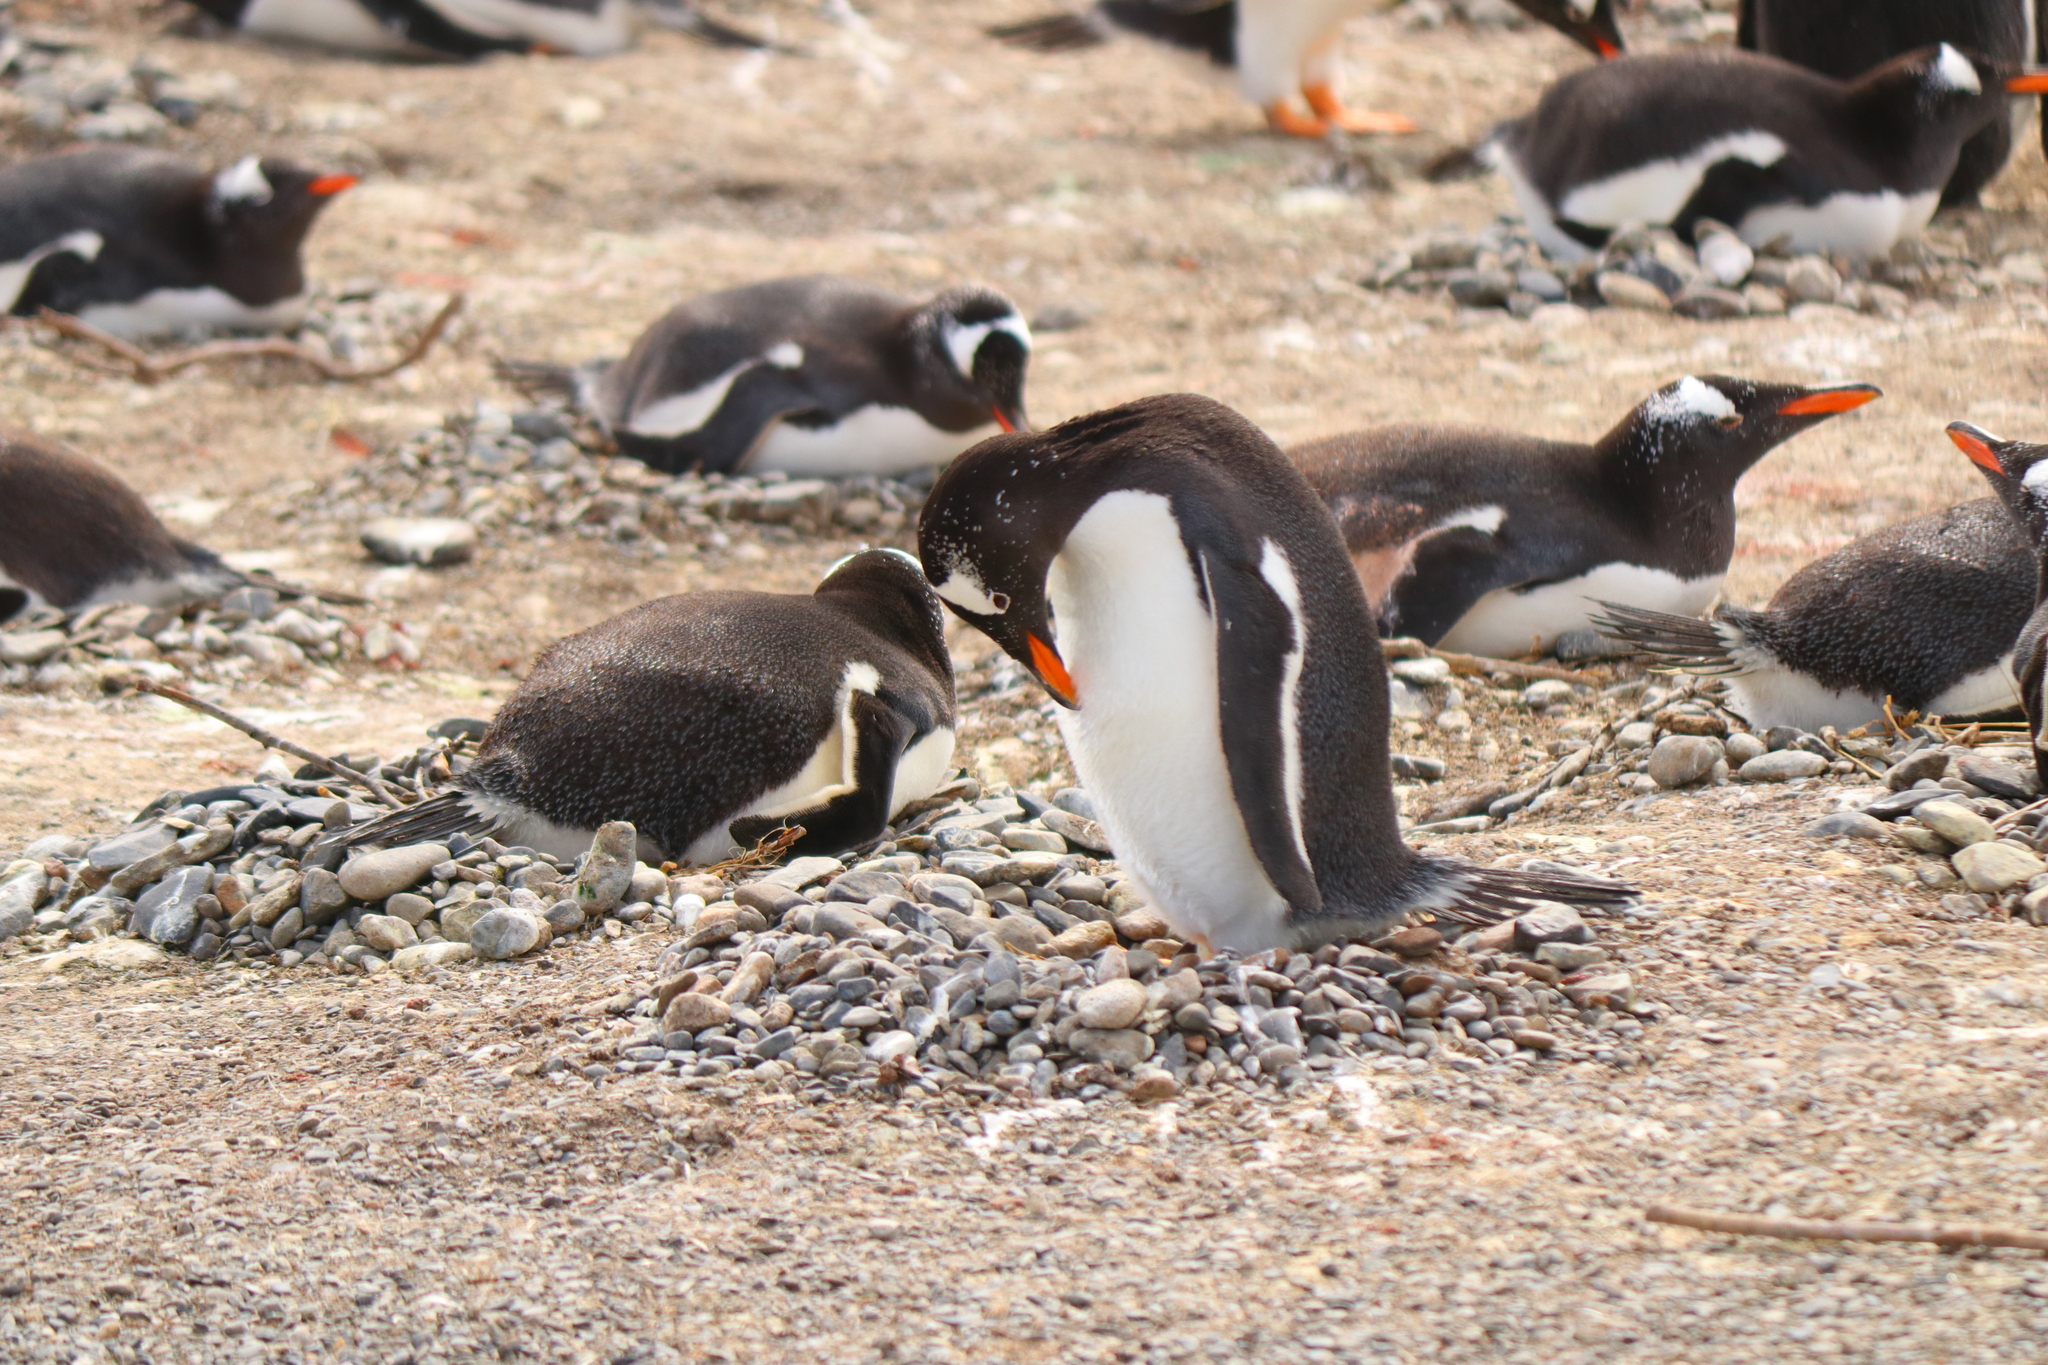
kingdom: Animalia
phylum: Chordata
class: Aves
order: Sphenisciformes
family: Spheniscidae
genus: Pygoscelis
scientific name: Pygoscelis papua
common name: Gentoo penguin
